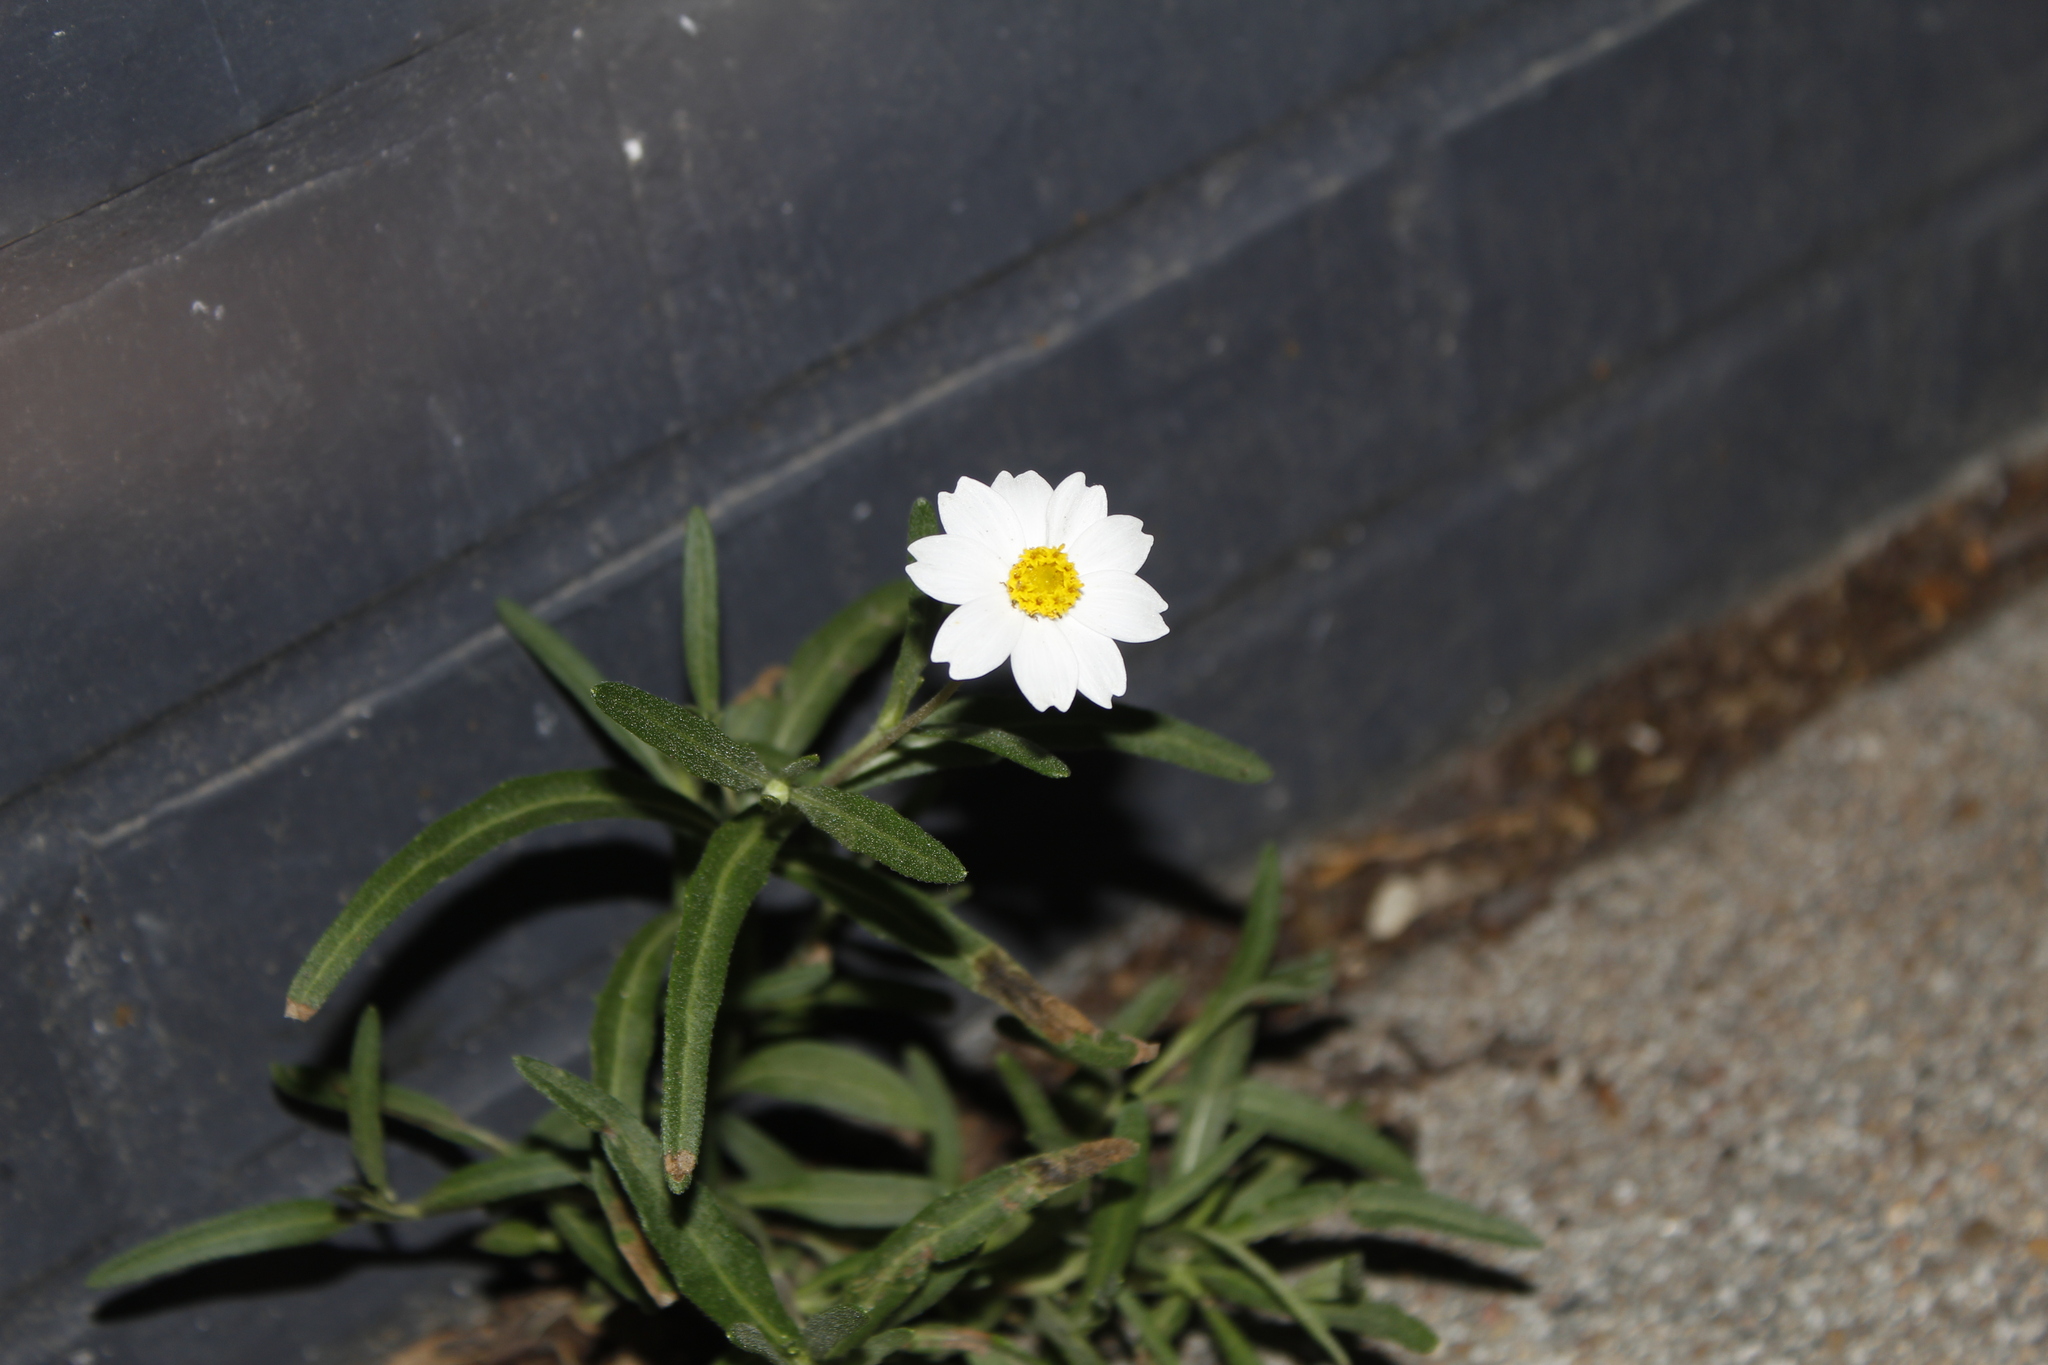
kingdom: Plantae
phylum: Tracheophyta
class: Magnoliopsida
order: Asterales
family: Asteraceae
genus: Melampodium
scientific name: Melampodium leucanthum
